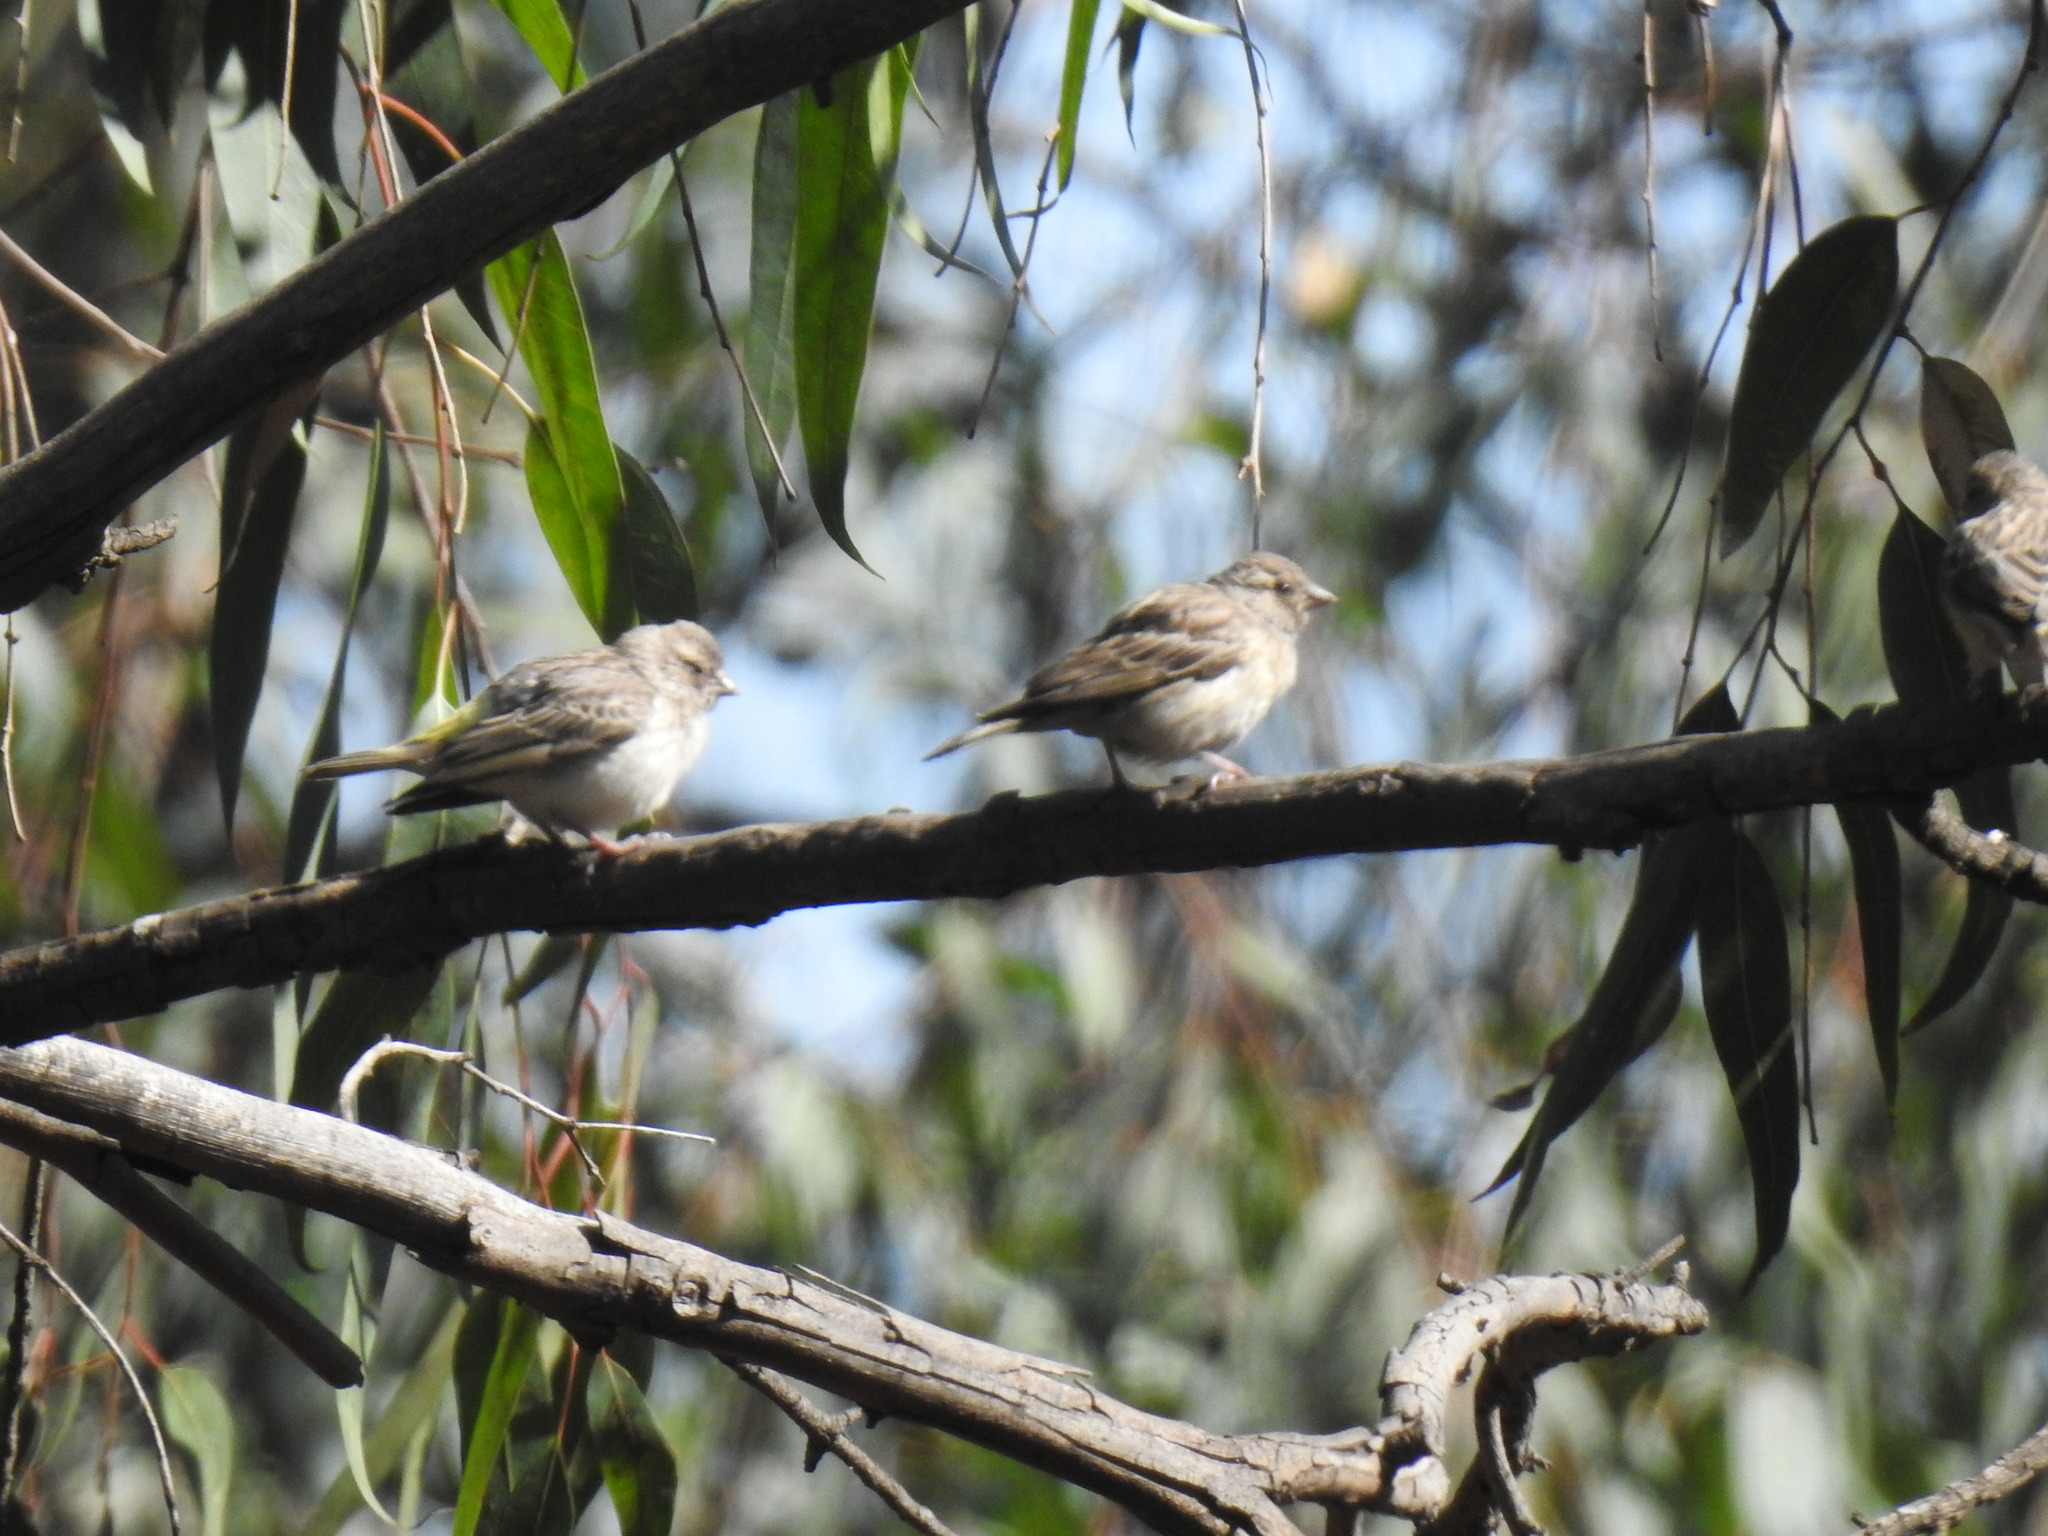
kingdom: Animalia
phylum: Chordata
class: Aves
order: Passeriformes
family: Fringillidae
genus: Crithagra
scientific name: Crithagra atrogularis
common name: Black-throated canary
